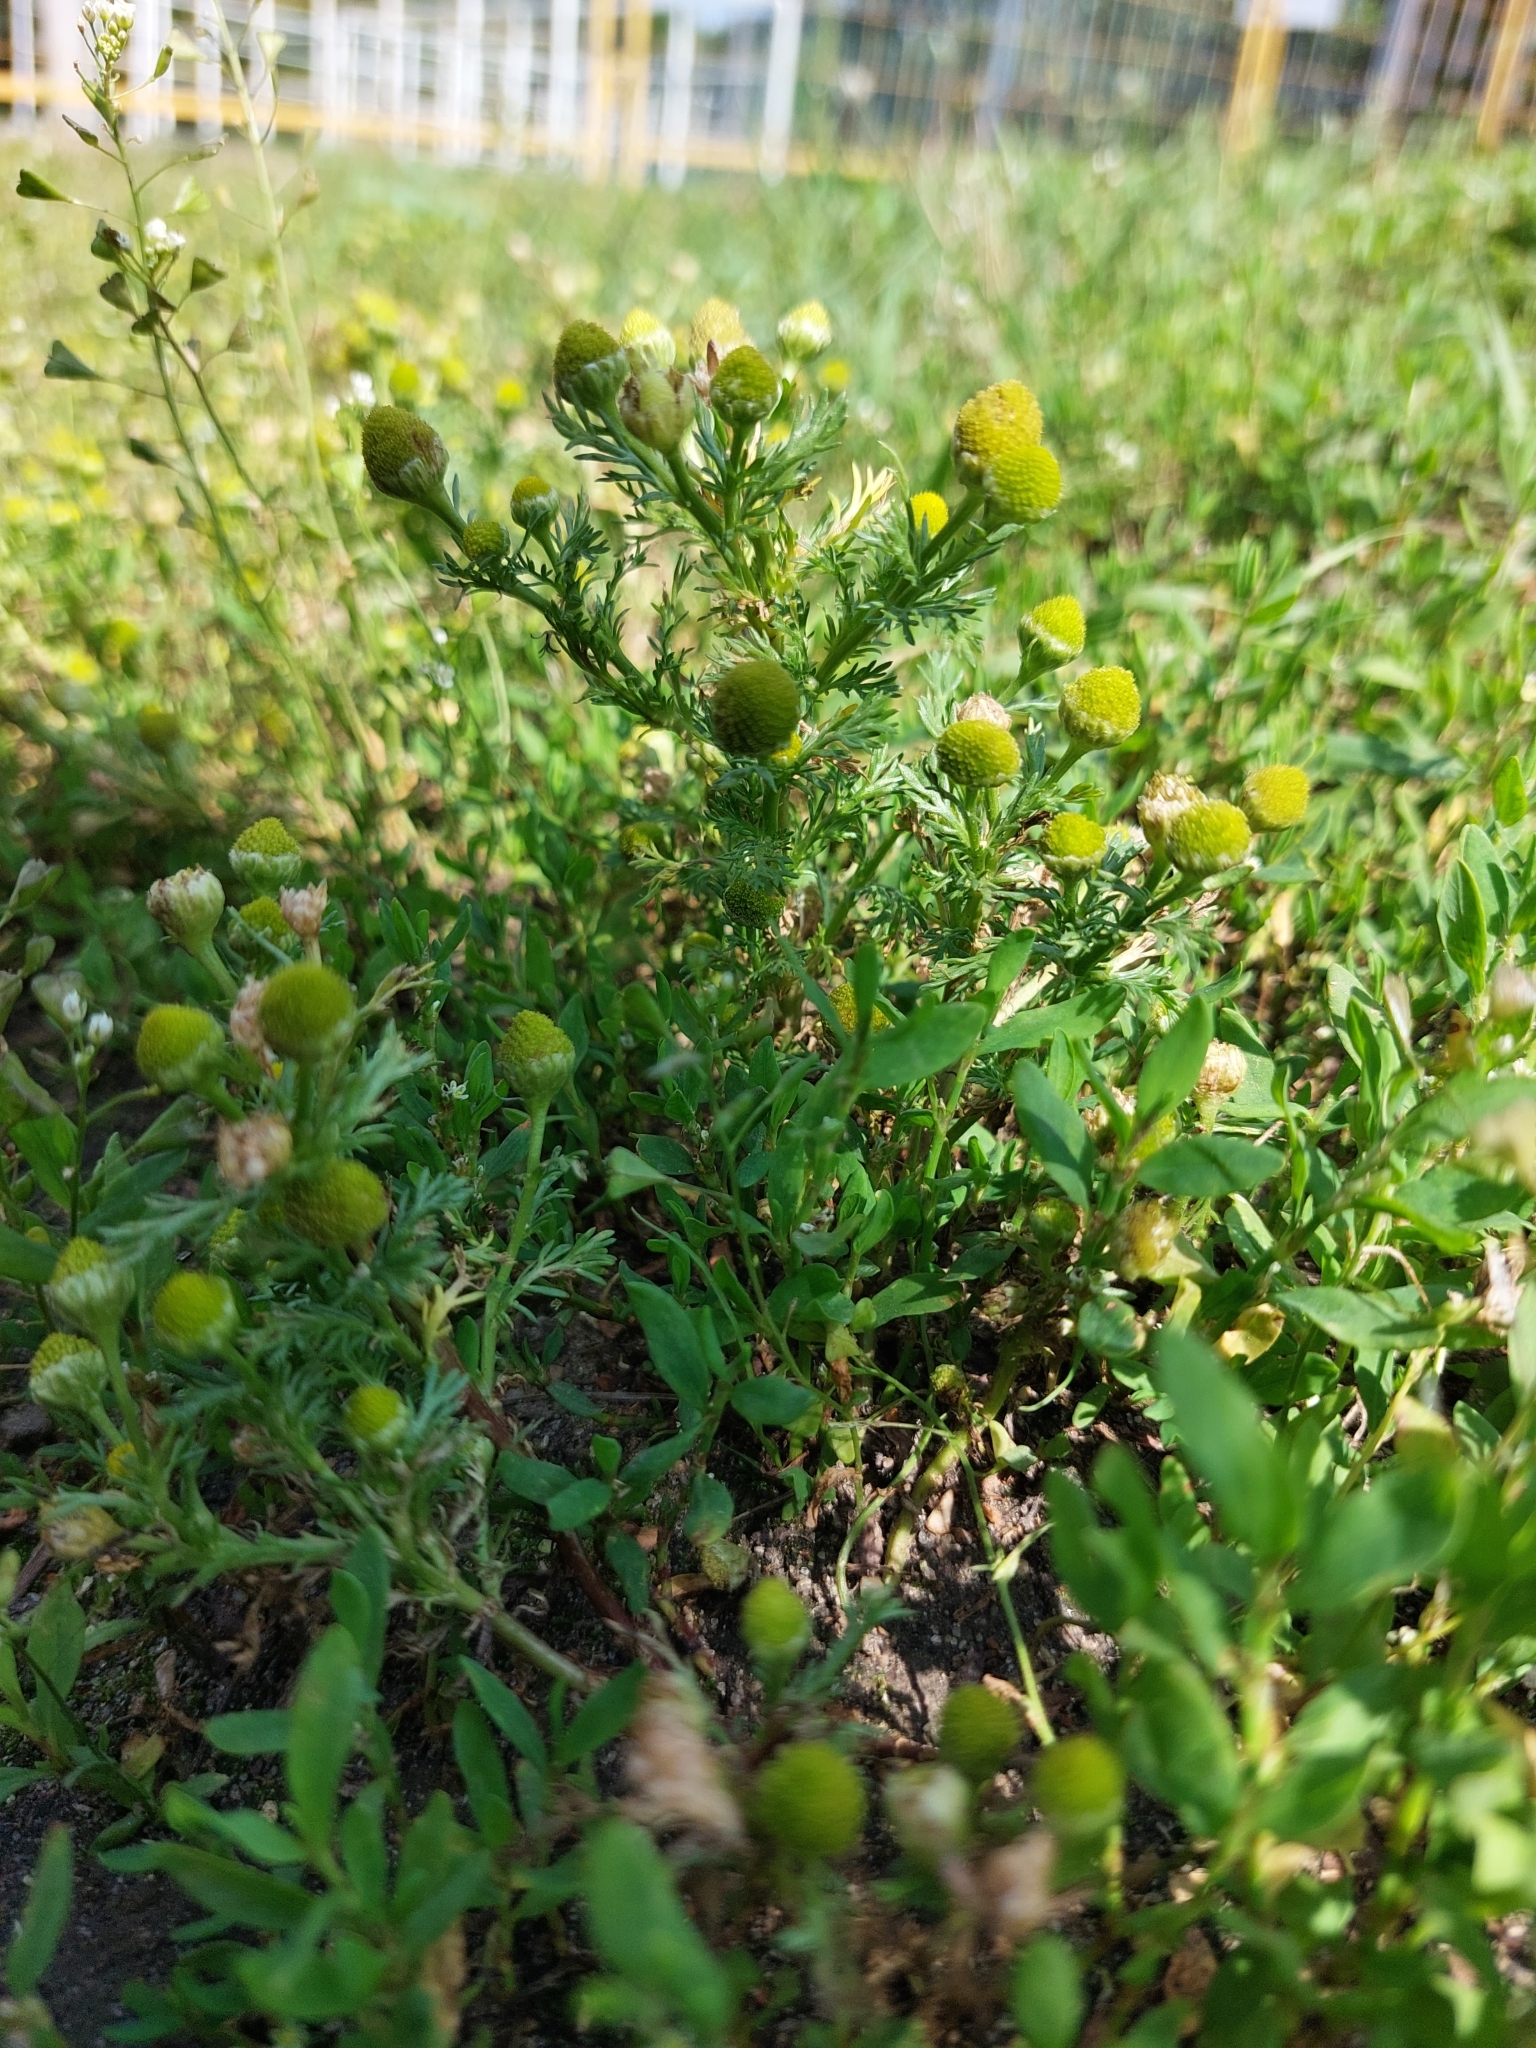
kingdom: Plantae
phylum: Tracheophyta
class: Magnoliopsida
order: Asterales
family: Asteraceae
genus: Matricaria
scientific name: Matricaria discoidea
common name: Disc mayweed
